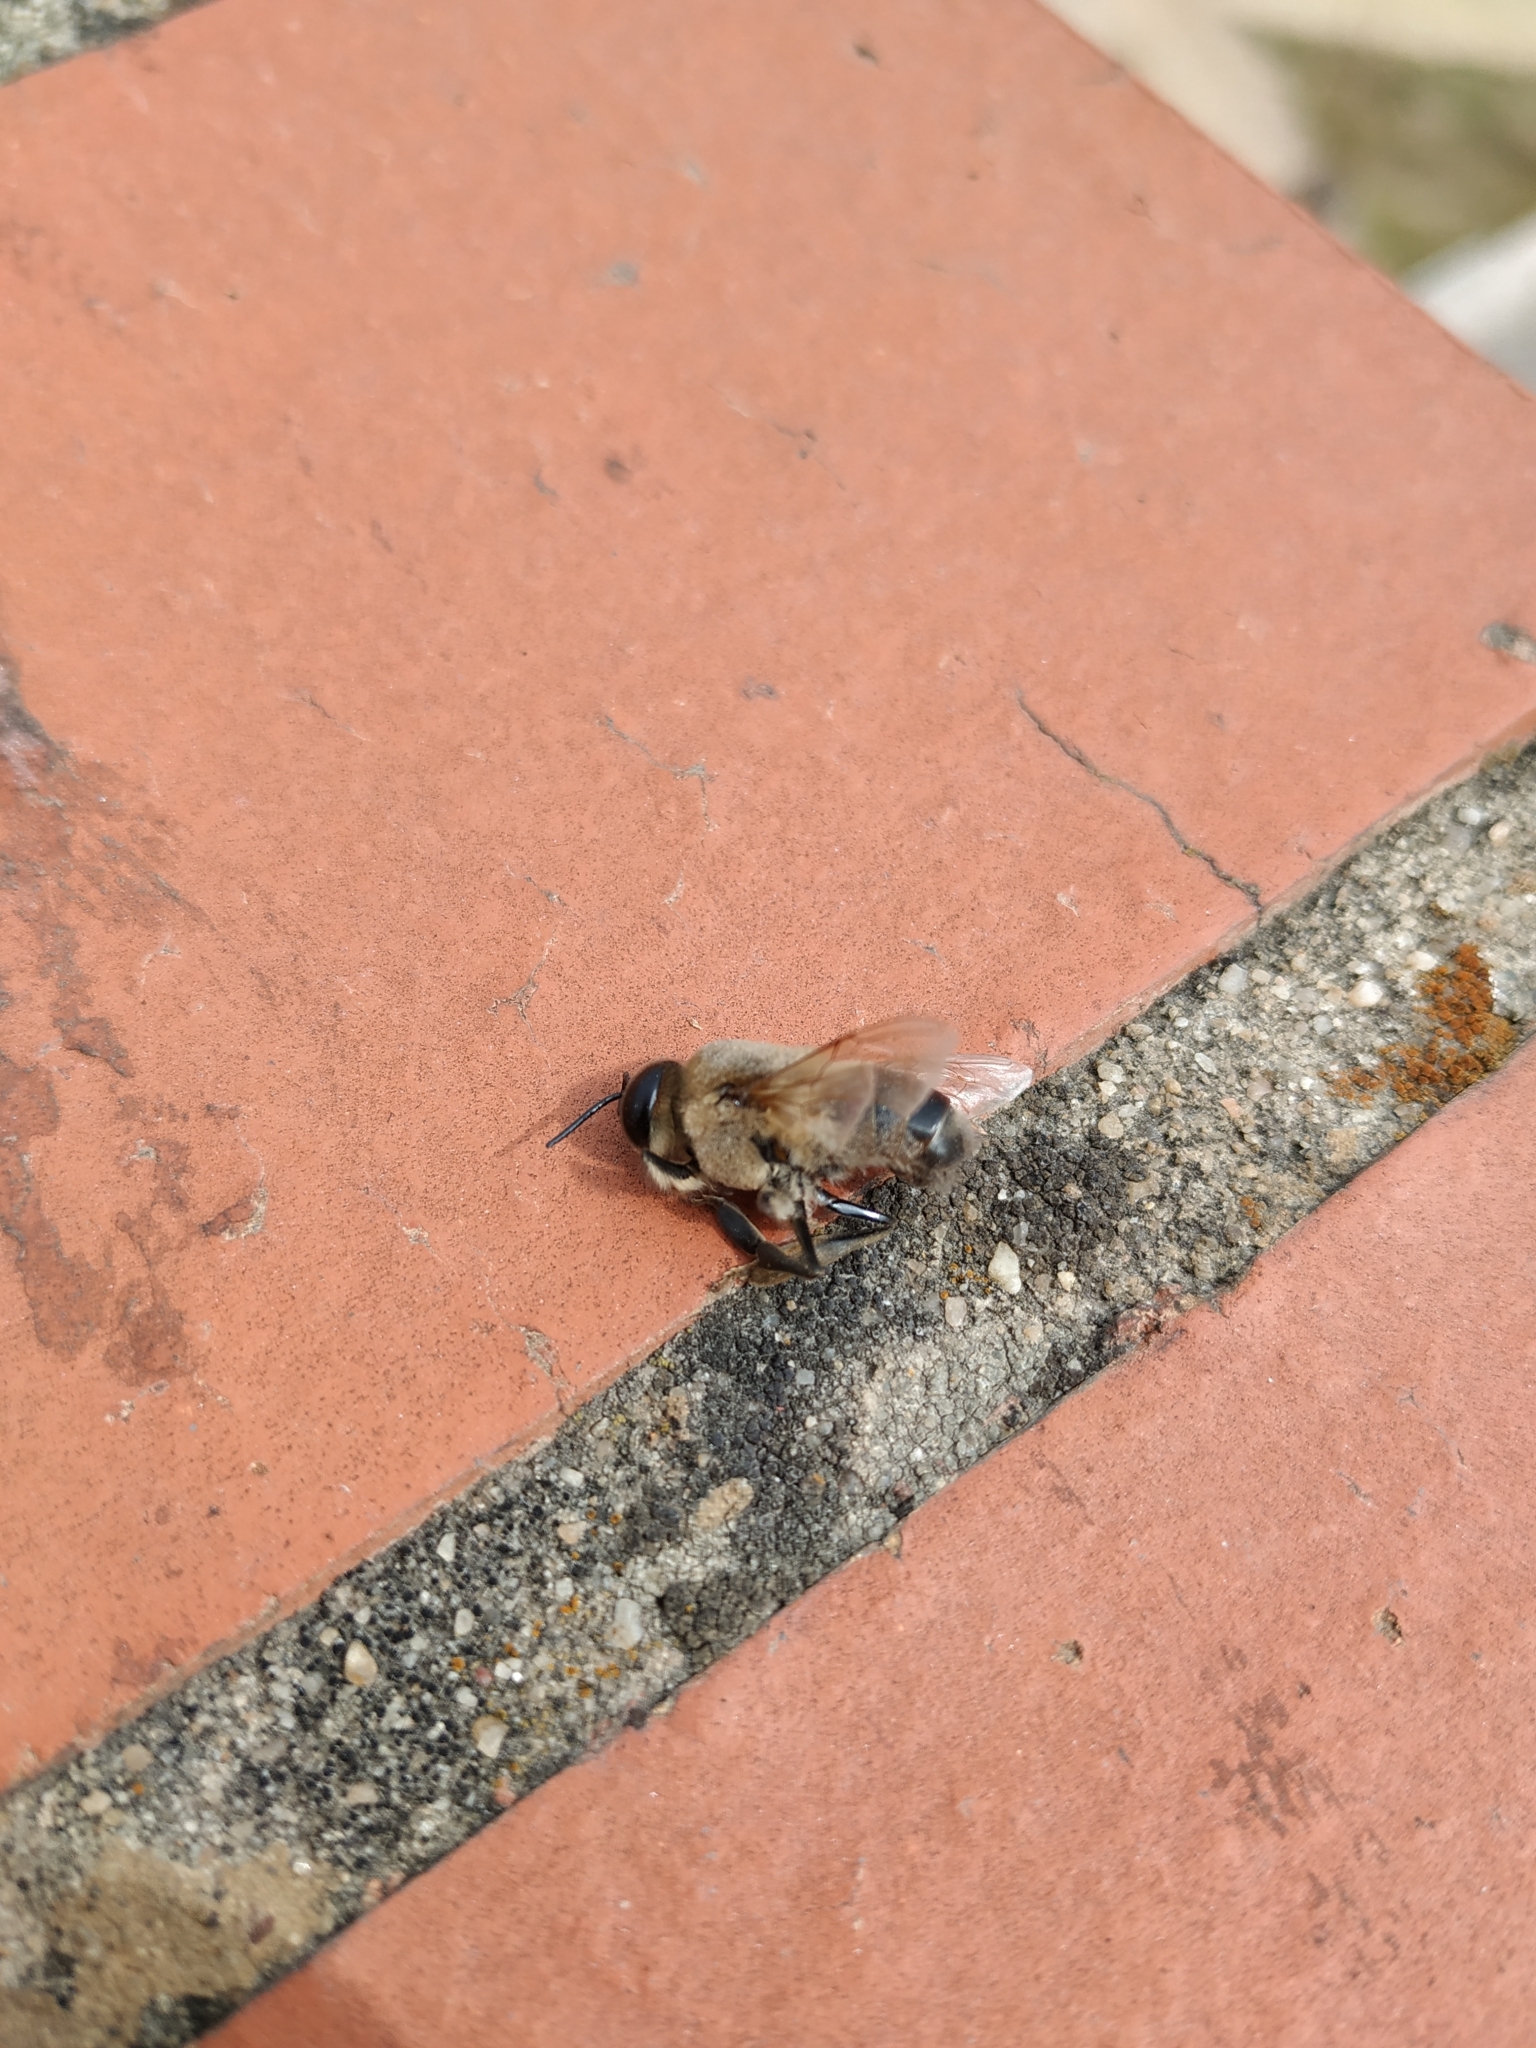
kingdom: Animalia
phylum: Arthropoda
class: Insecta
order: Hymenoptera
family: Apidae
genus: Apis
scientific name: Apis mellifera
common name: Honey bee
